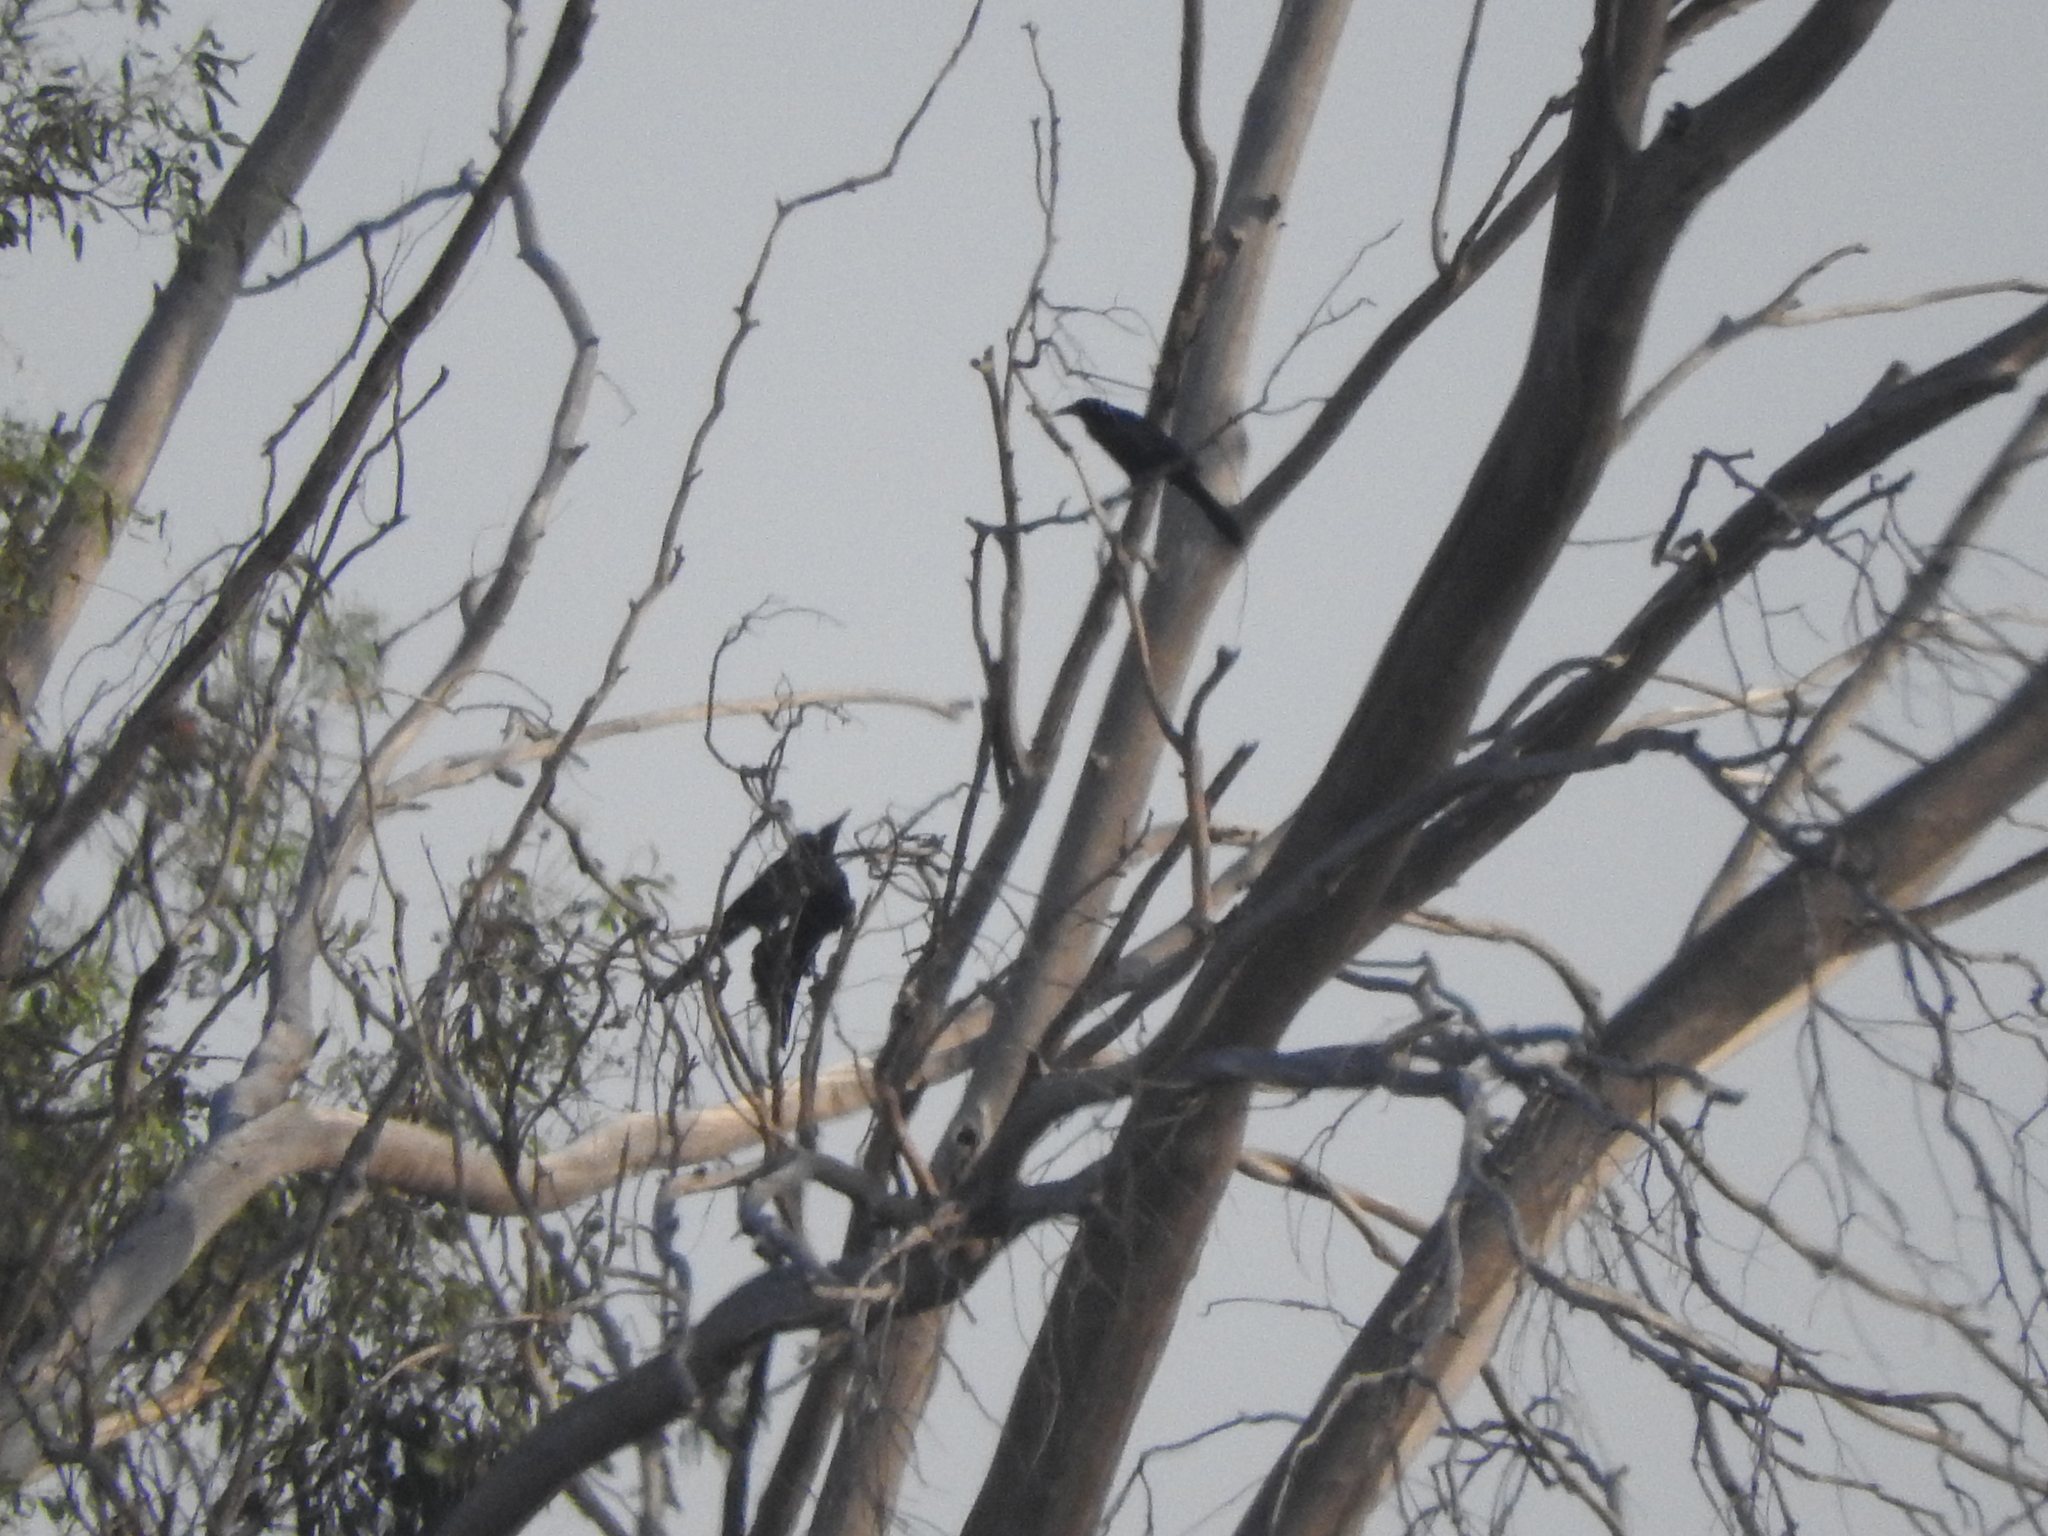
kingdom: Animalia
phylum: Chordata
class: Aves
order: Passeriformes
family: Icteridae
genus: Quiscalus
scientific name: Quiscalus mexicanus
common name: Great-tailed grackle
